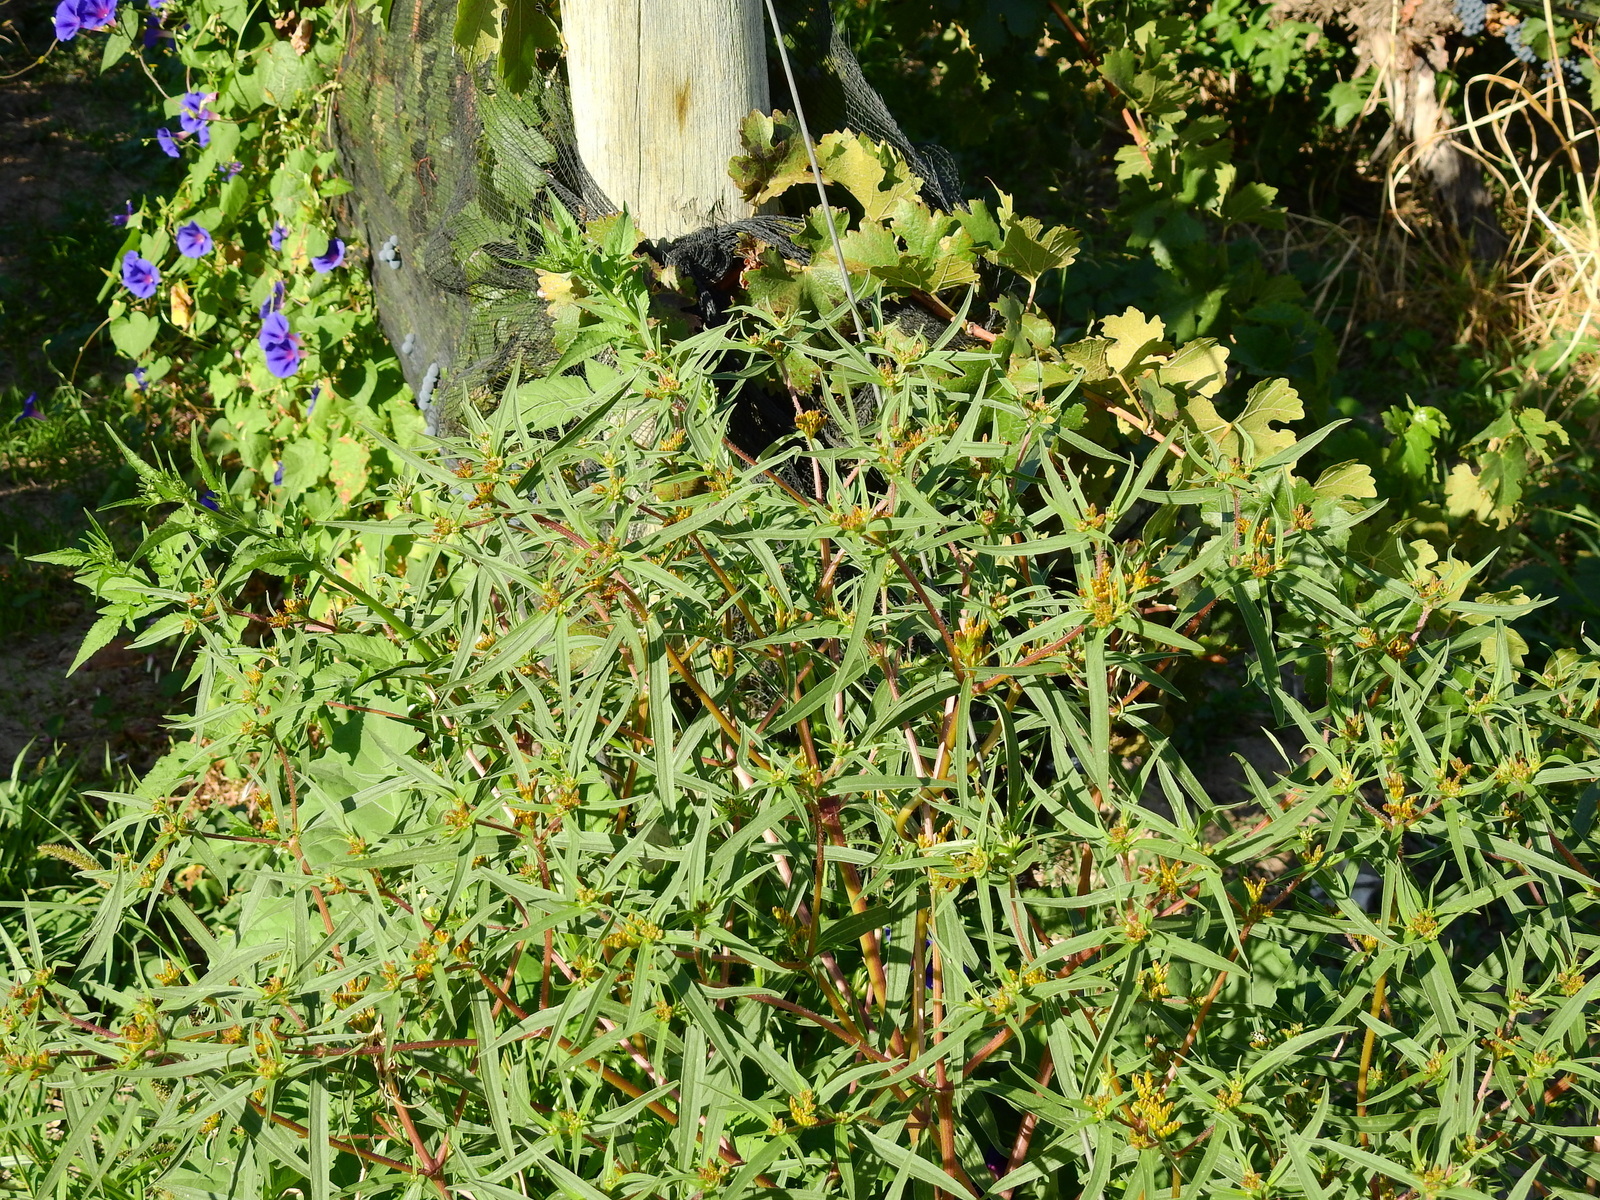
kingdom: Plantae
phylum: Tracheophyta
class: Magnoliopsida
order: Asterales
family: Asteraceae
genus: Flaveria
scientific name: Flaveria bidentis
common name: Coastal plain yellowtops
